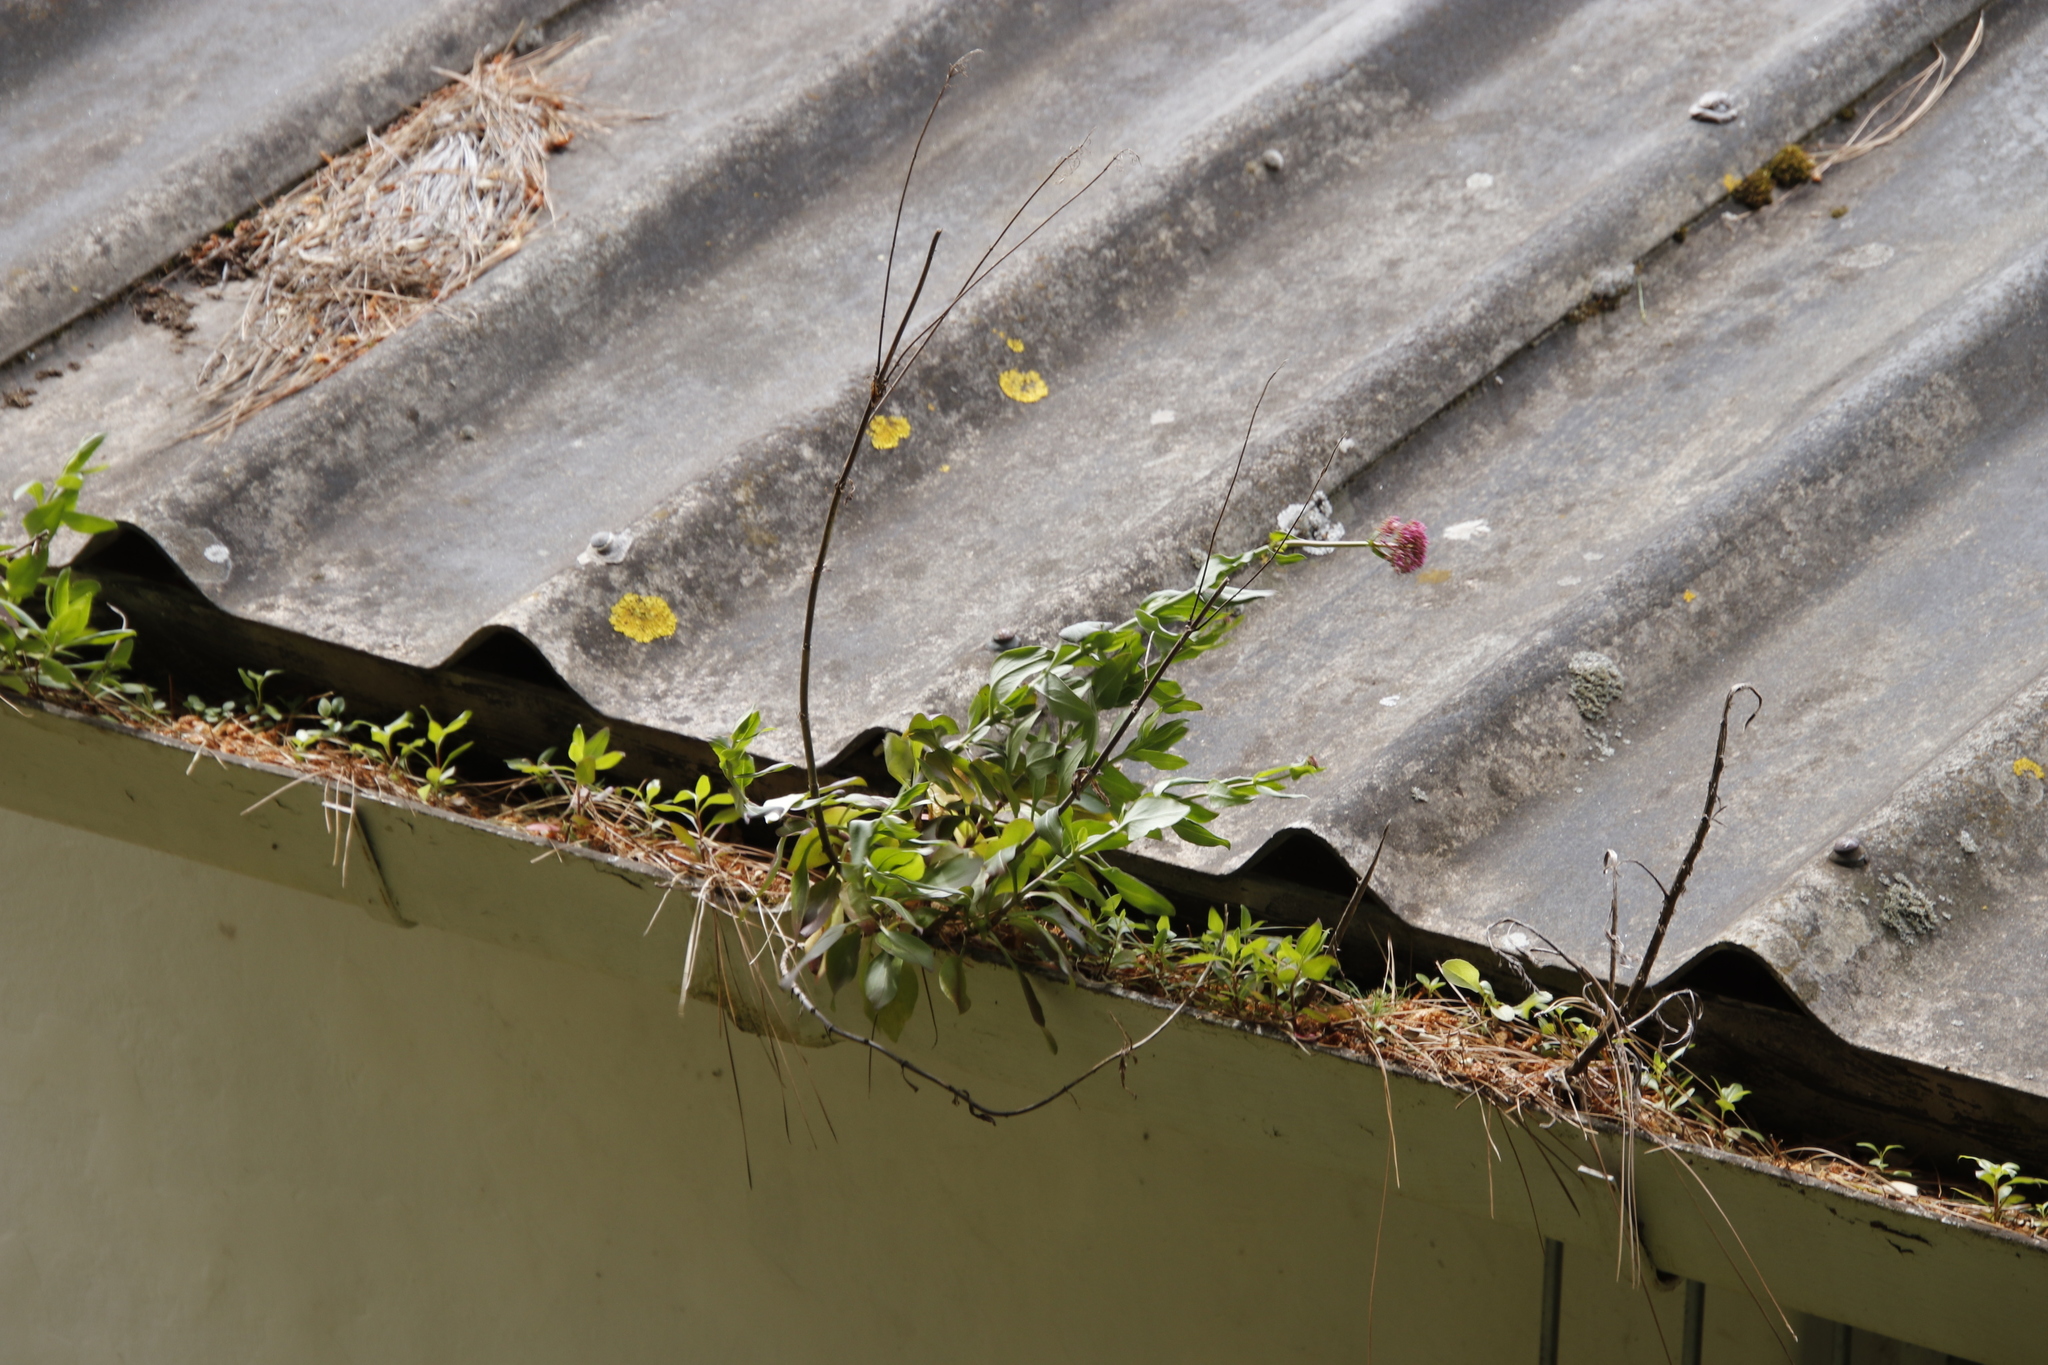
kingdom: Plantae
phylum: Tracheophyta
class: Magnoliopsida
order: Dipsacales
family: Caprifoliaceae
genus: Centranthus
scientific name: Centranthus ruber
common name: Red valerian
